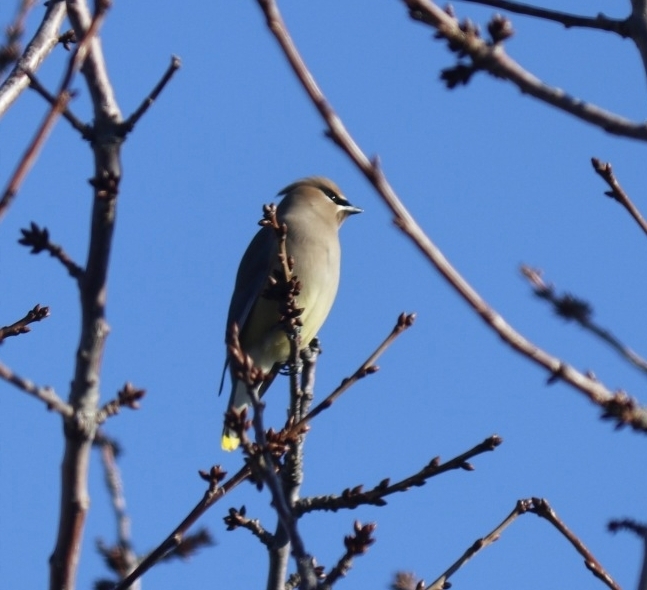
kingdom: Animalia
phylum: Chordata
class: Aves
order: Passeriformes
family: Bombycillidae
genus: Bombycilla
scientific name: Bombycilla cedrorum
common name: Cedar waxwing
